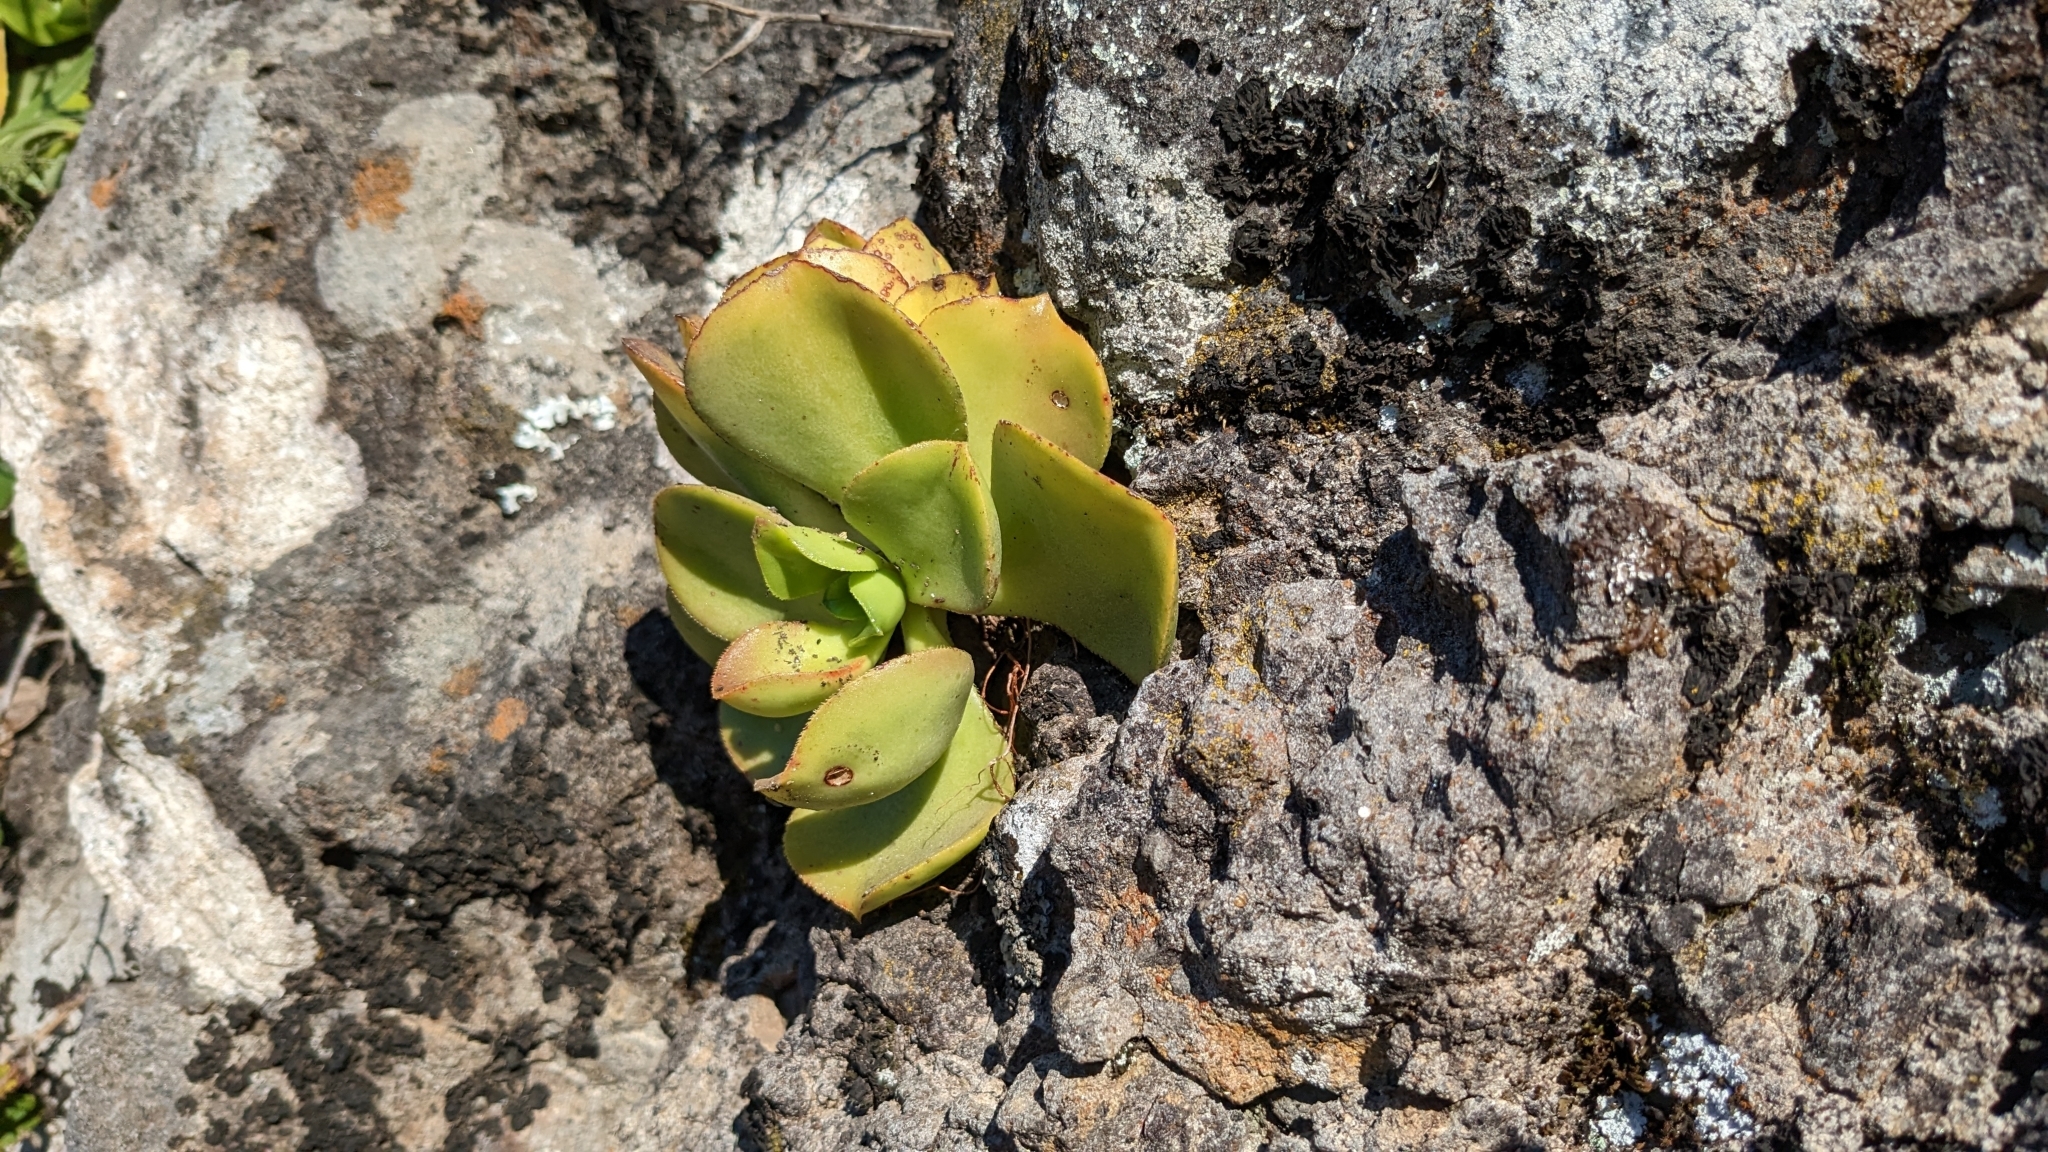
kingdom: Plantae
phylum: Tracheophyta
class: Magnoliopsida
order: Saxifragales
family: Crassulaceae
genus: Aeonium
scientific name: Aeonium glutinosum
